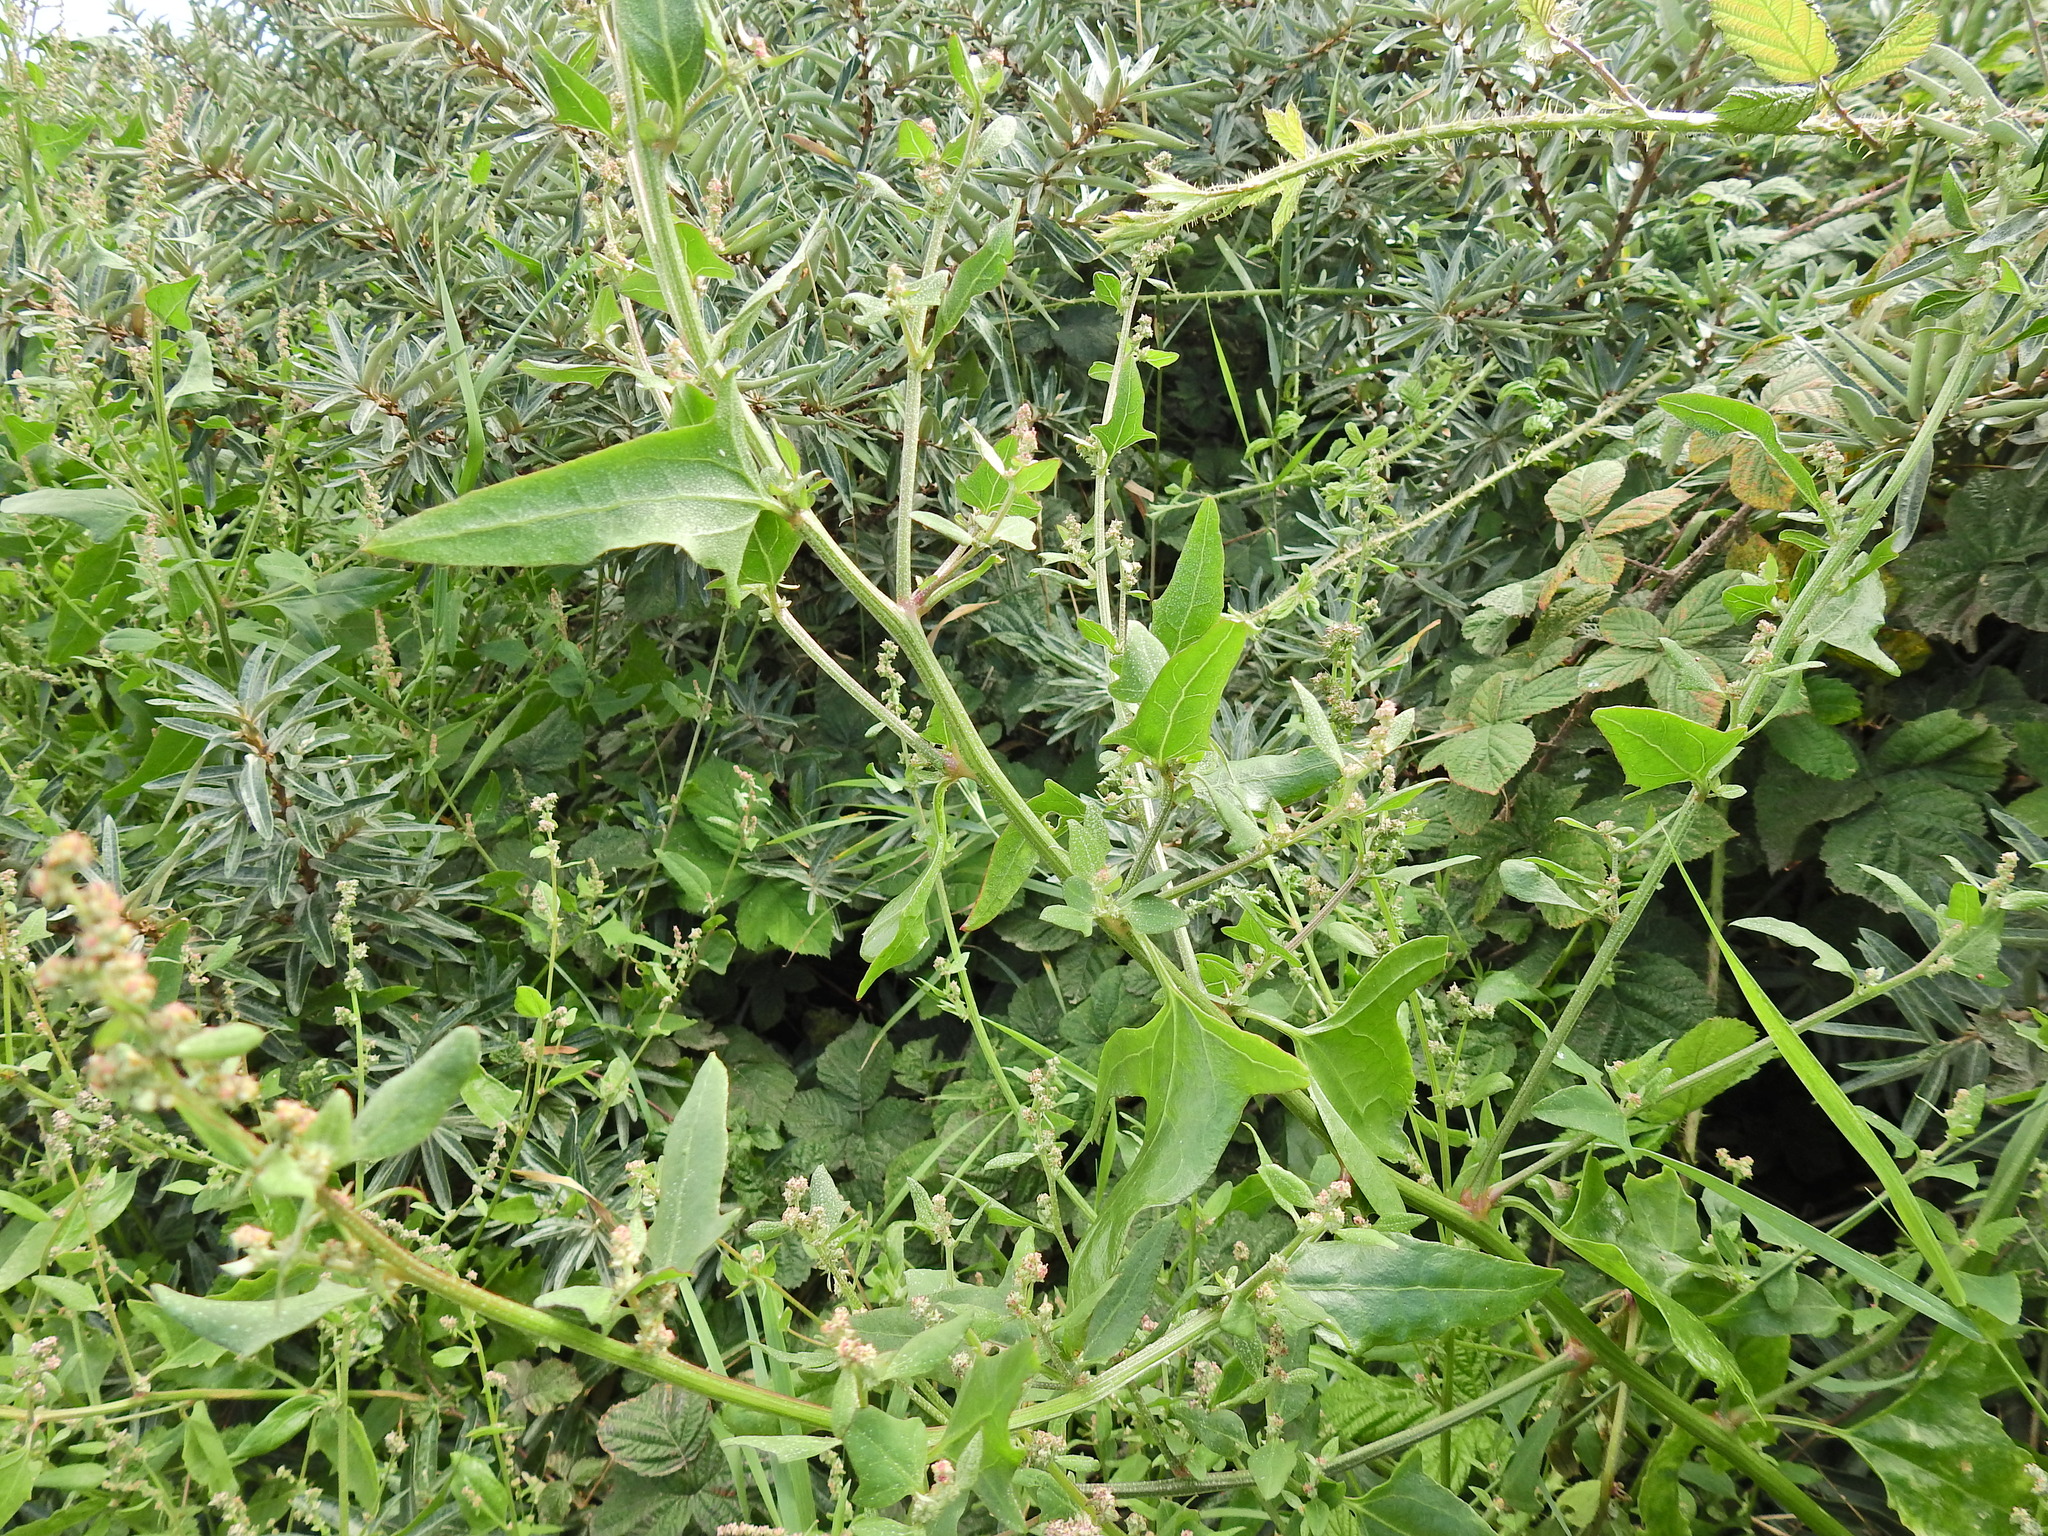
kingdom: Plantae
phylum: Tracheophyta
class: Magnoliopsida
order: Caryophyllales
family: Amaranthaceae
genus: Atriplex
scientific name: Atriplex prostrata
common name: Spear-leaved orache
